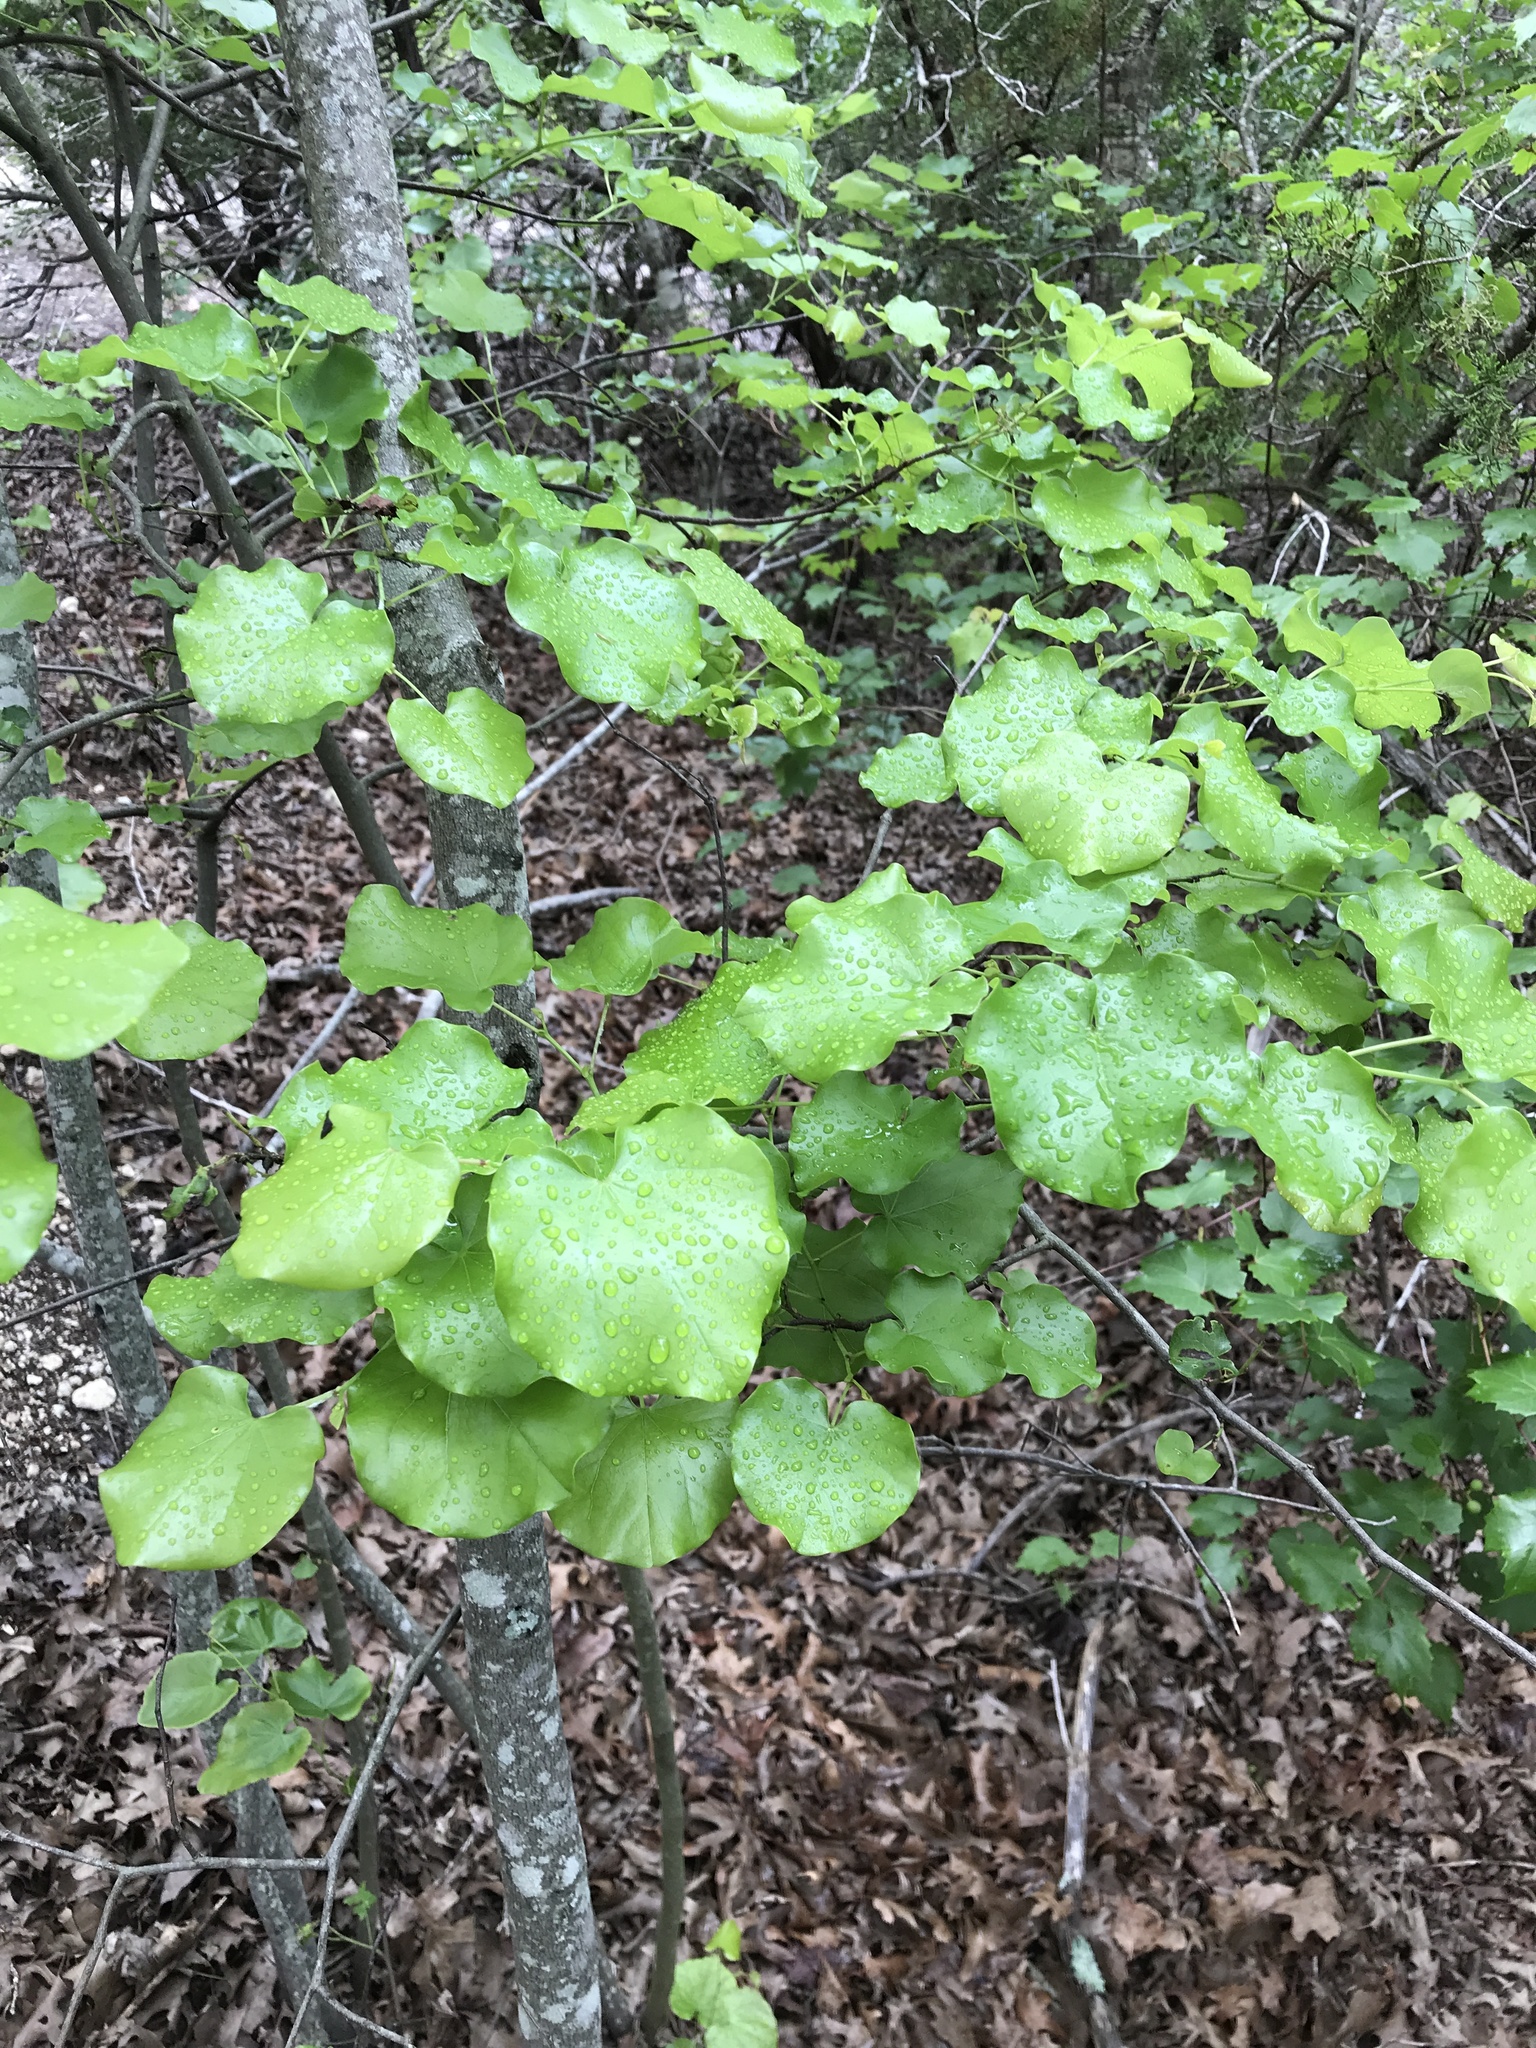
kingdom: Plantae
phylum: Tracheophyta
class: Magnoliopsida
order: Fabales
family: Fabaceae
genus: Cercis
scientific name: Cercis canadensis
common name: Eastern redbud
